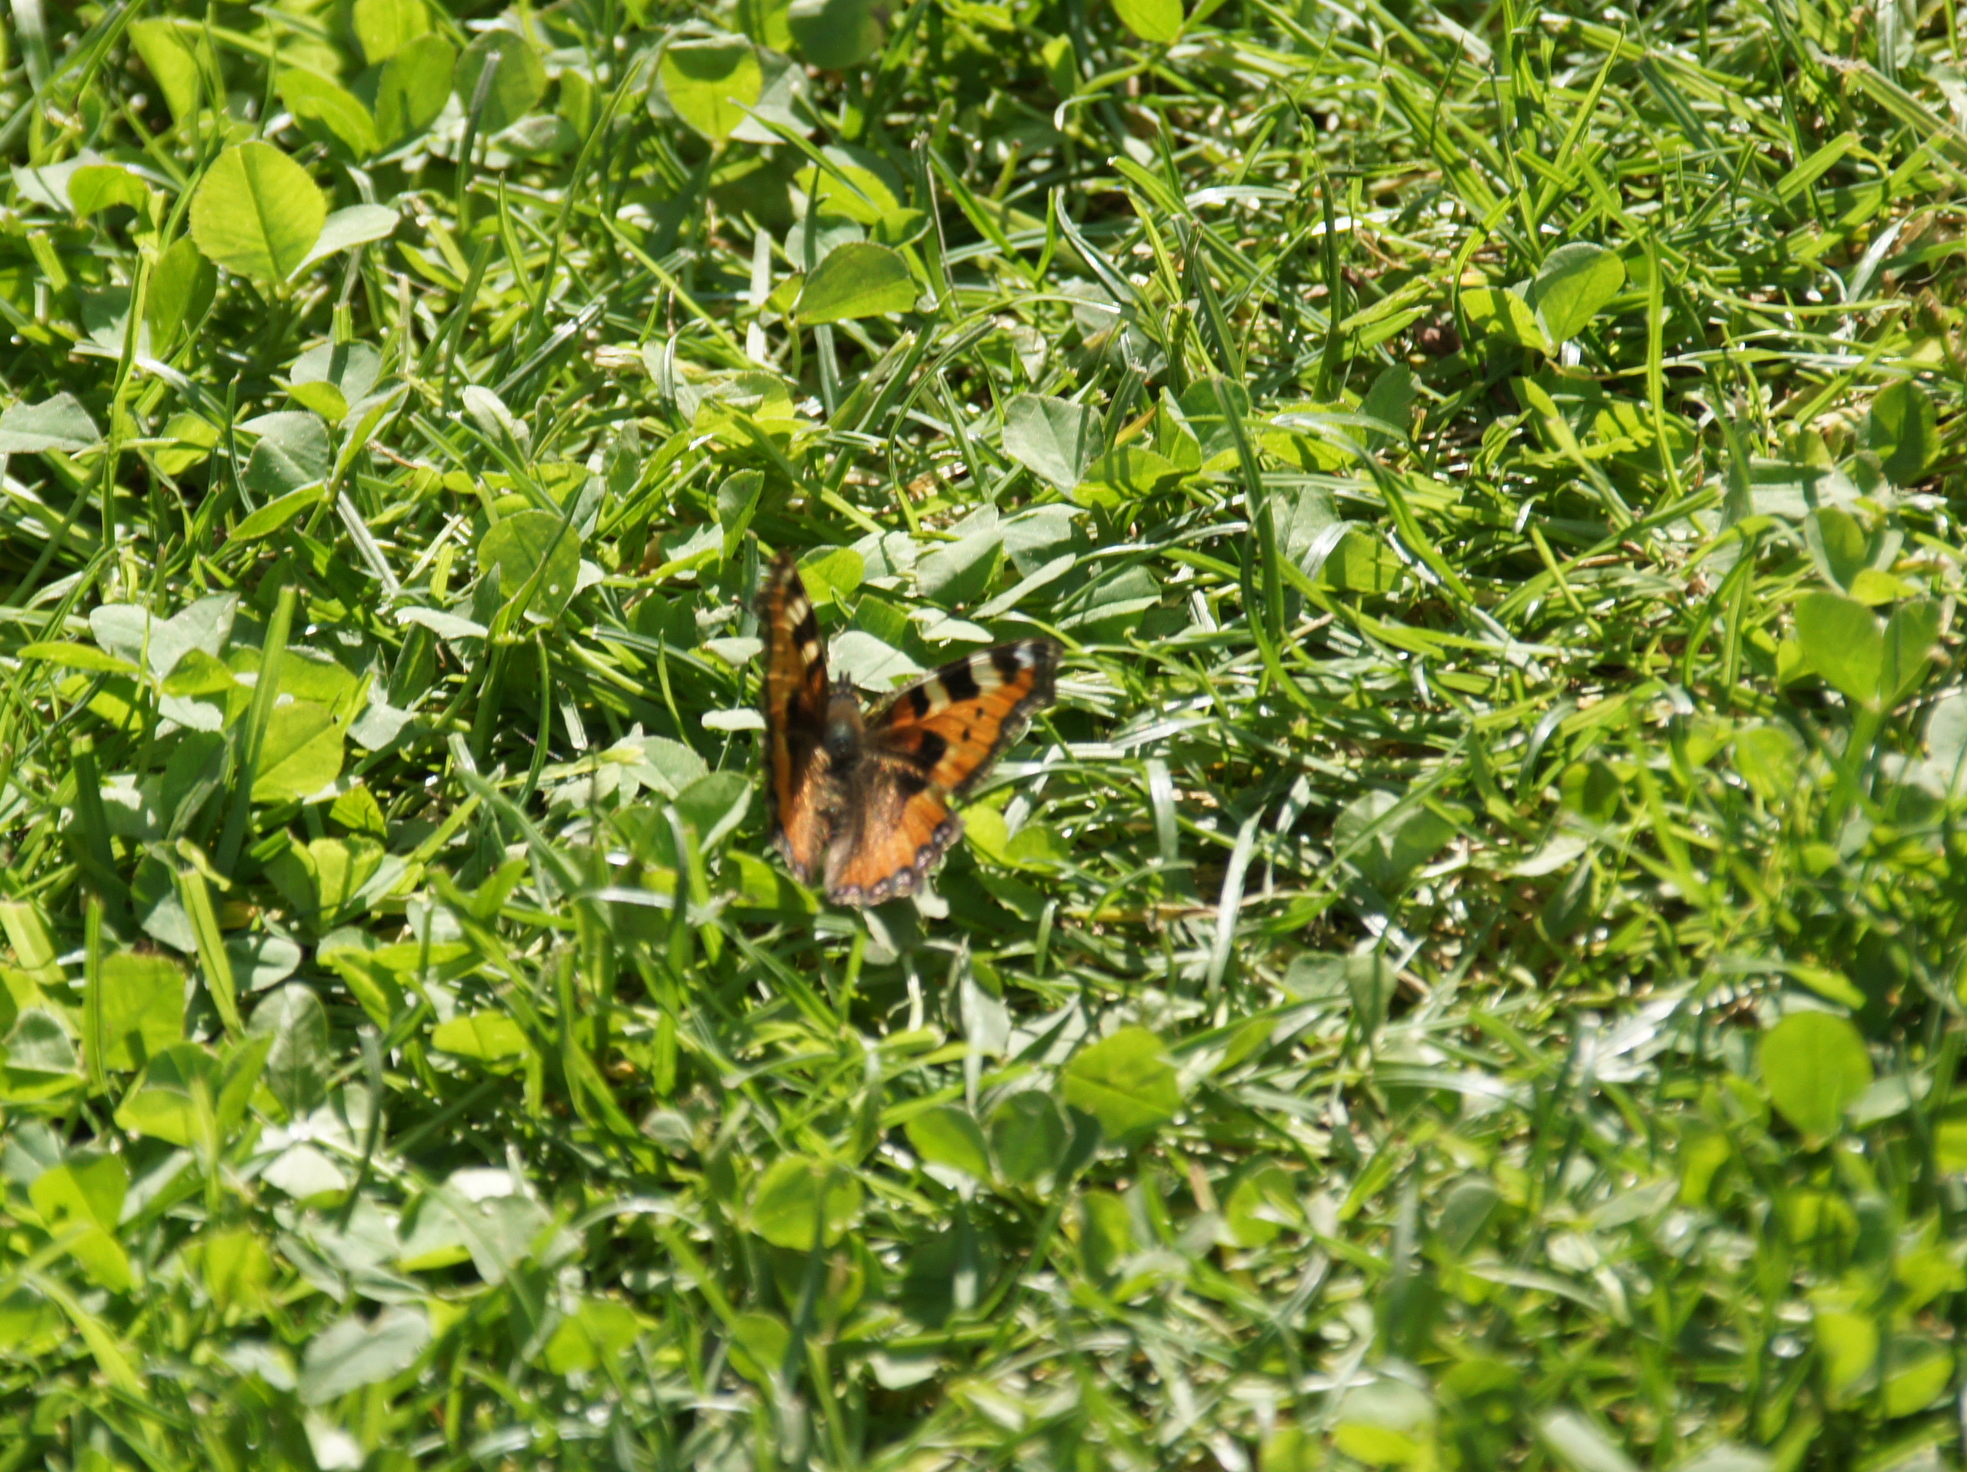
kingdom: Animalia
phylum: Arthropoda
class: Insecta
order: Lepidoptera
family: Nymphalidae
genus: Aglais
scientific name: Aglais urticae
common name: Small tortoiseshell
